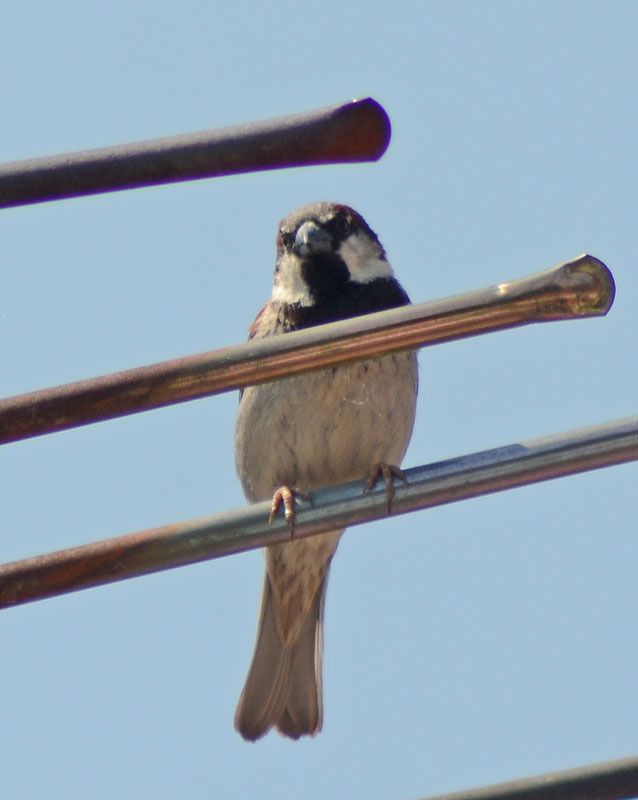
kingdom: Animalia
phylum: Chordata
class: Aves
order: Passeriformes
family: Passeridae
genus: Passer
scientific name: Passer domesticus
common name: House sparrow
